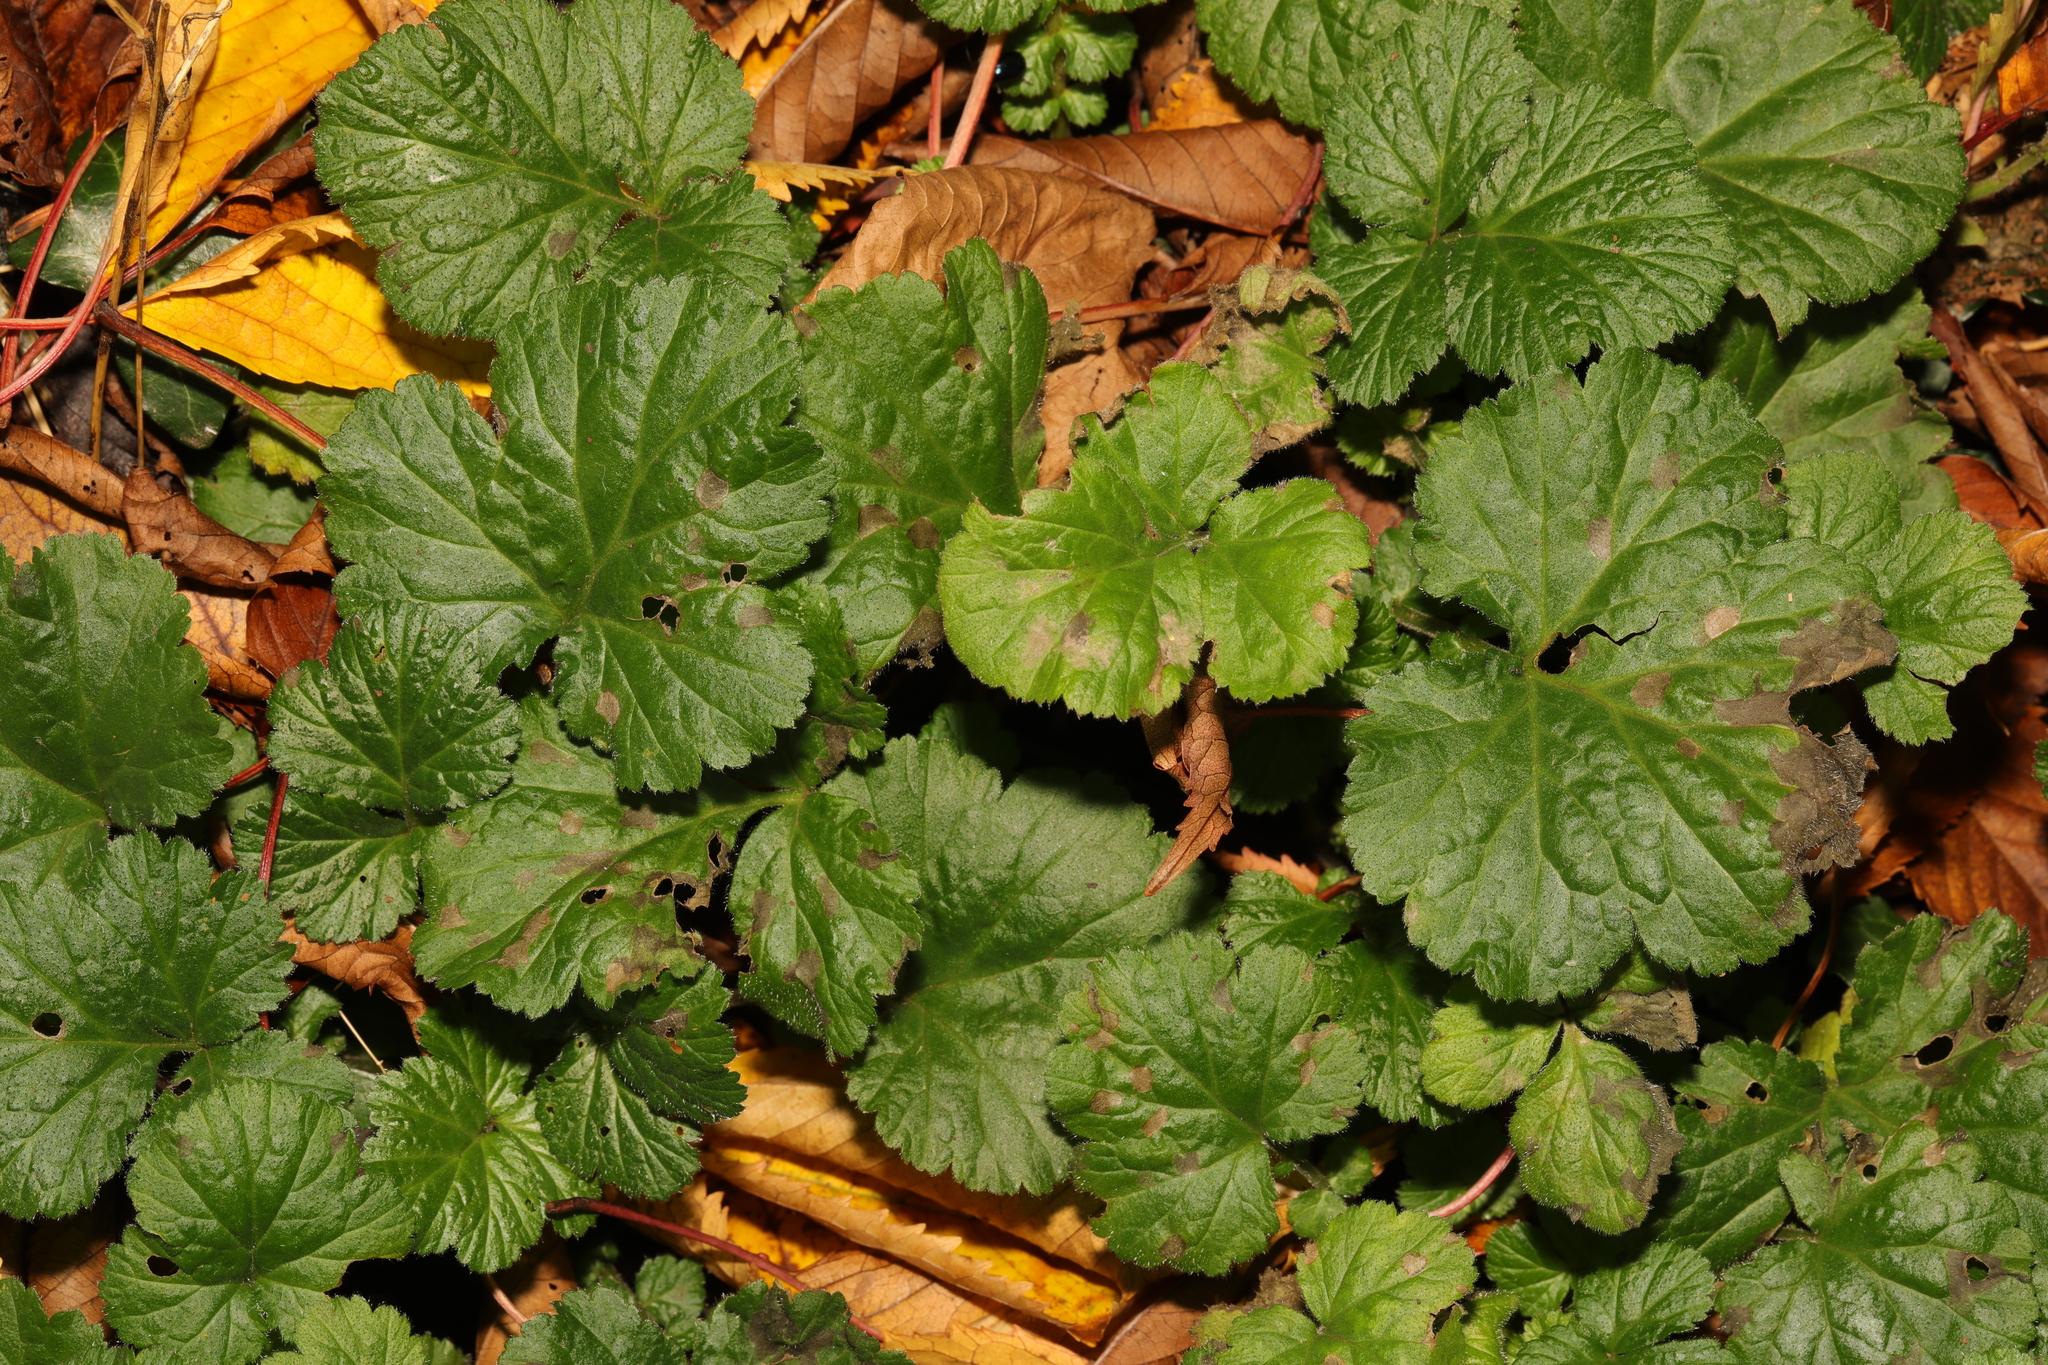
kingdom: Plantae
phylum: Tracheophyta
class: Magnoliopsida
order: Rosales
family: Rosaceae
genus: Geum
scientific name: Geum urbanum
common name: Wood avens
